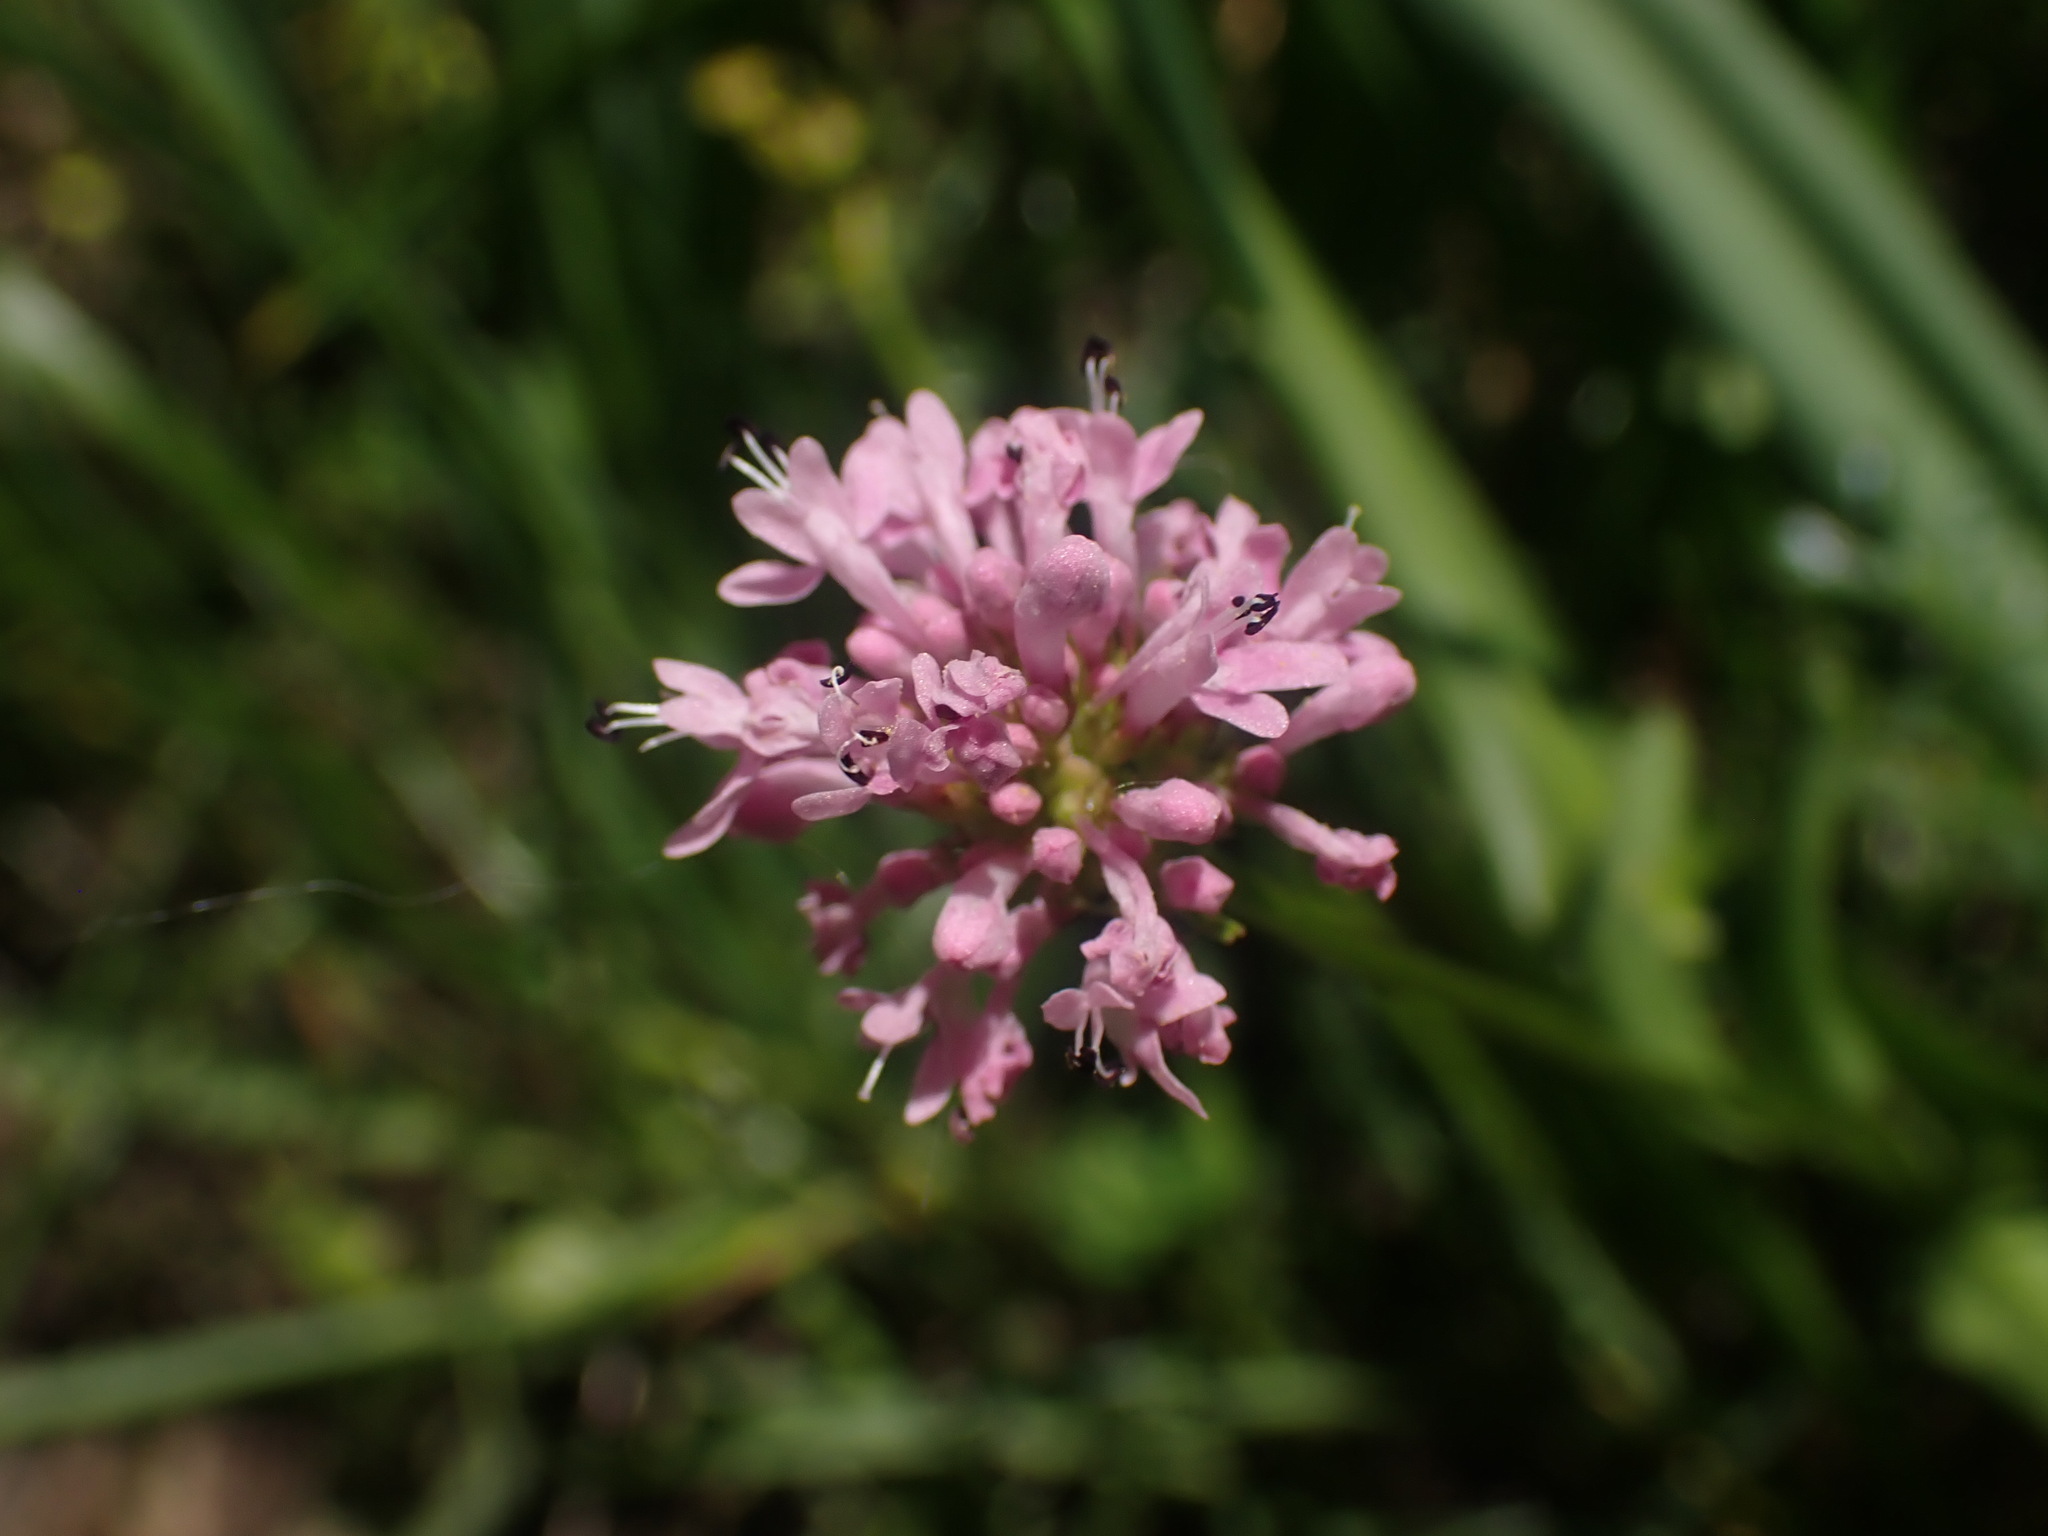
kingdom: Plantae
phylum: Tracheophyta
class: Magnoliopsida
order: Dipsacales
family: Caprifoliaceae
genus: Plectritis
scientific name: Plectritis congesta
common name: Pink plectritis
